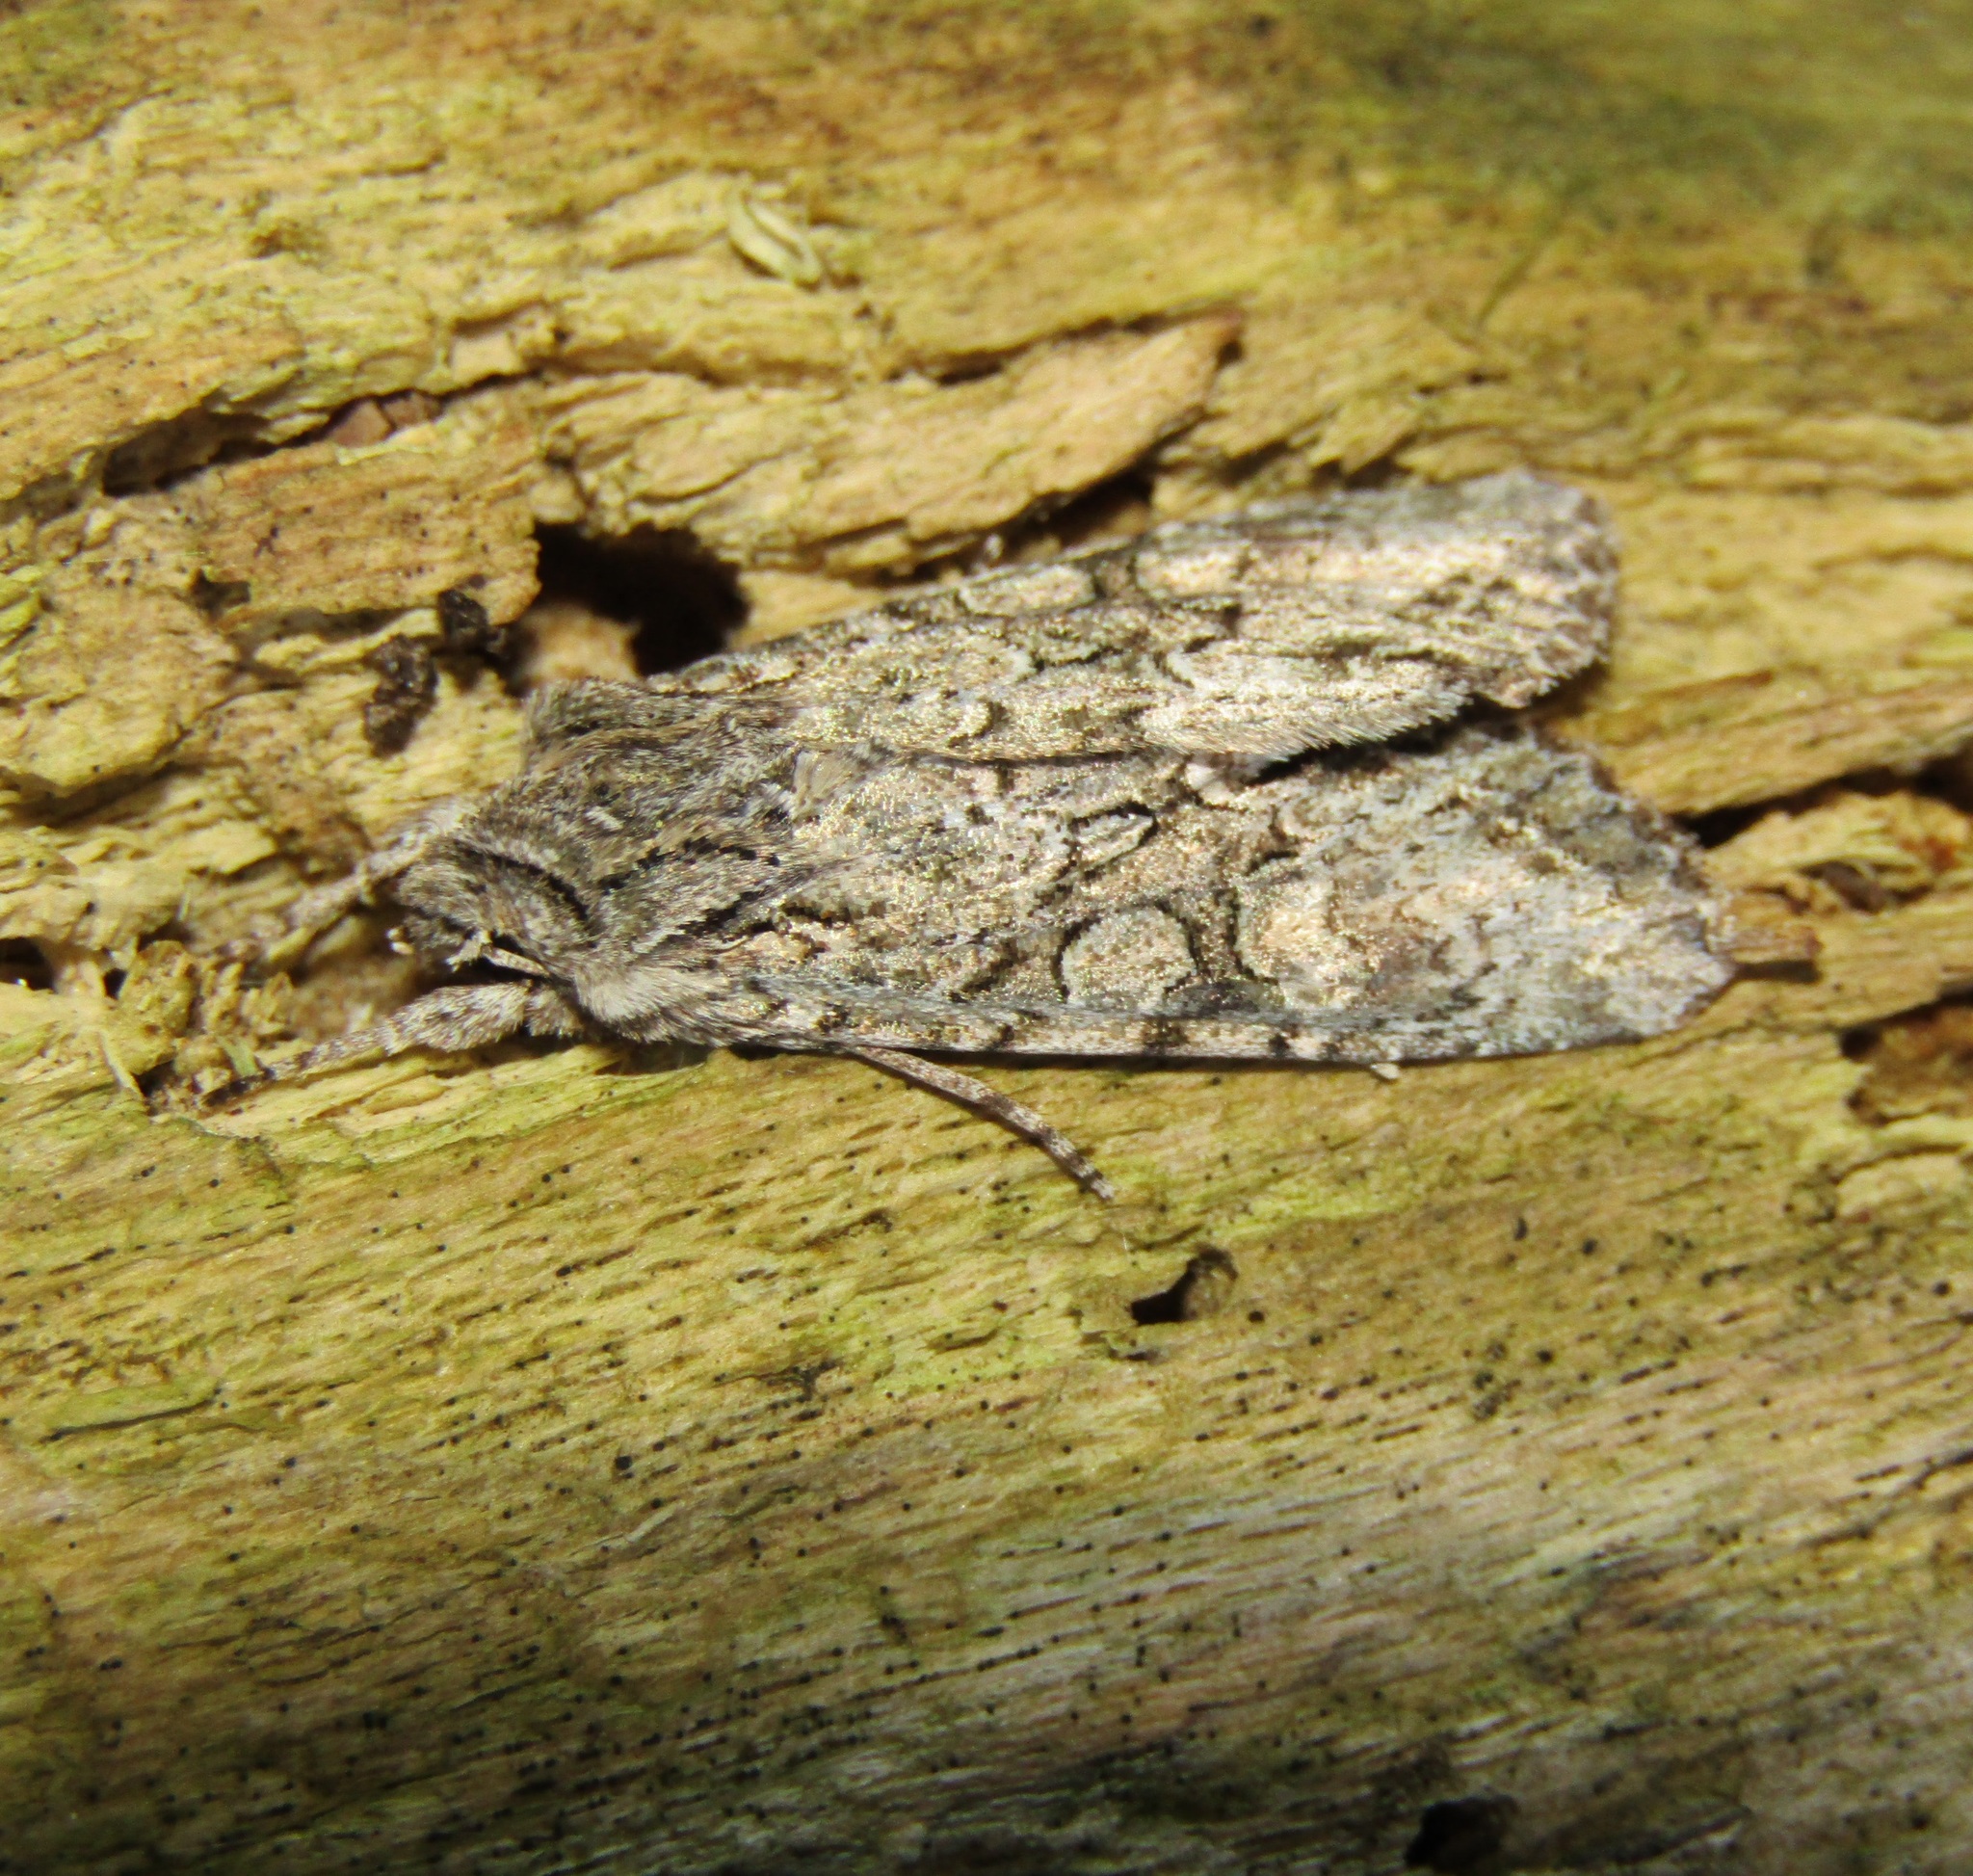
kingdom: Animalia
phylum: Arthropoda
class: Insecta
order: Lepidoptera
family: Noctuidae
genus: Ichneutica
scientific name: Ichneutica mutans
